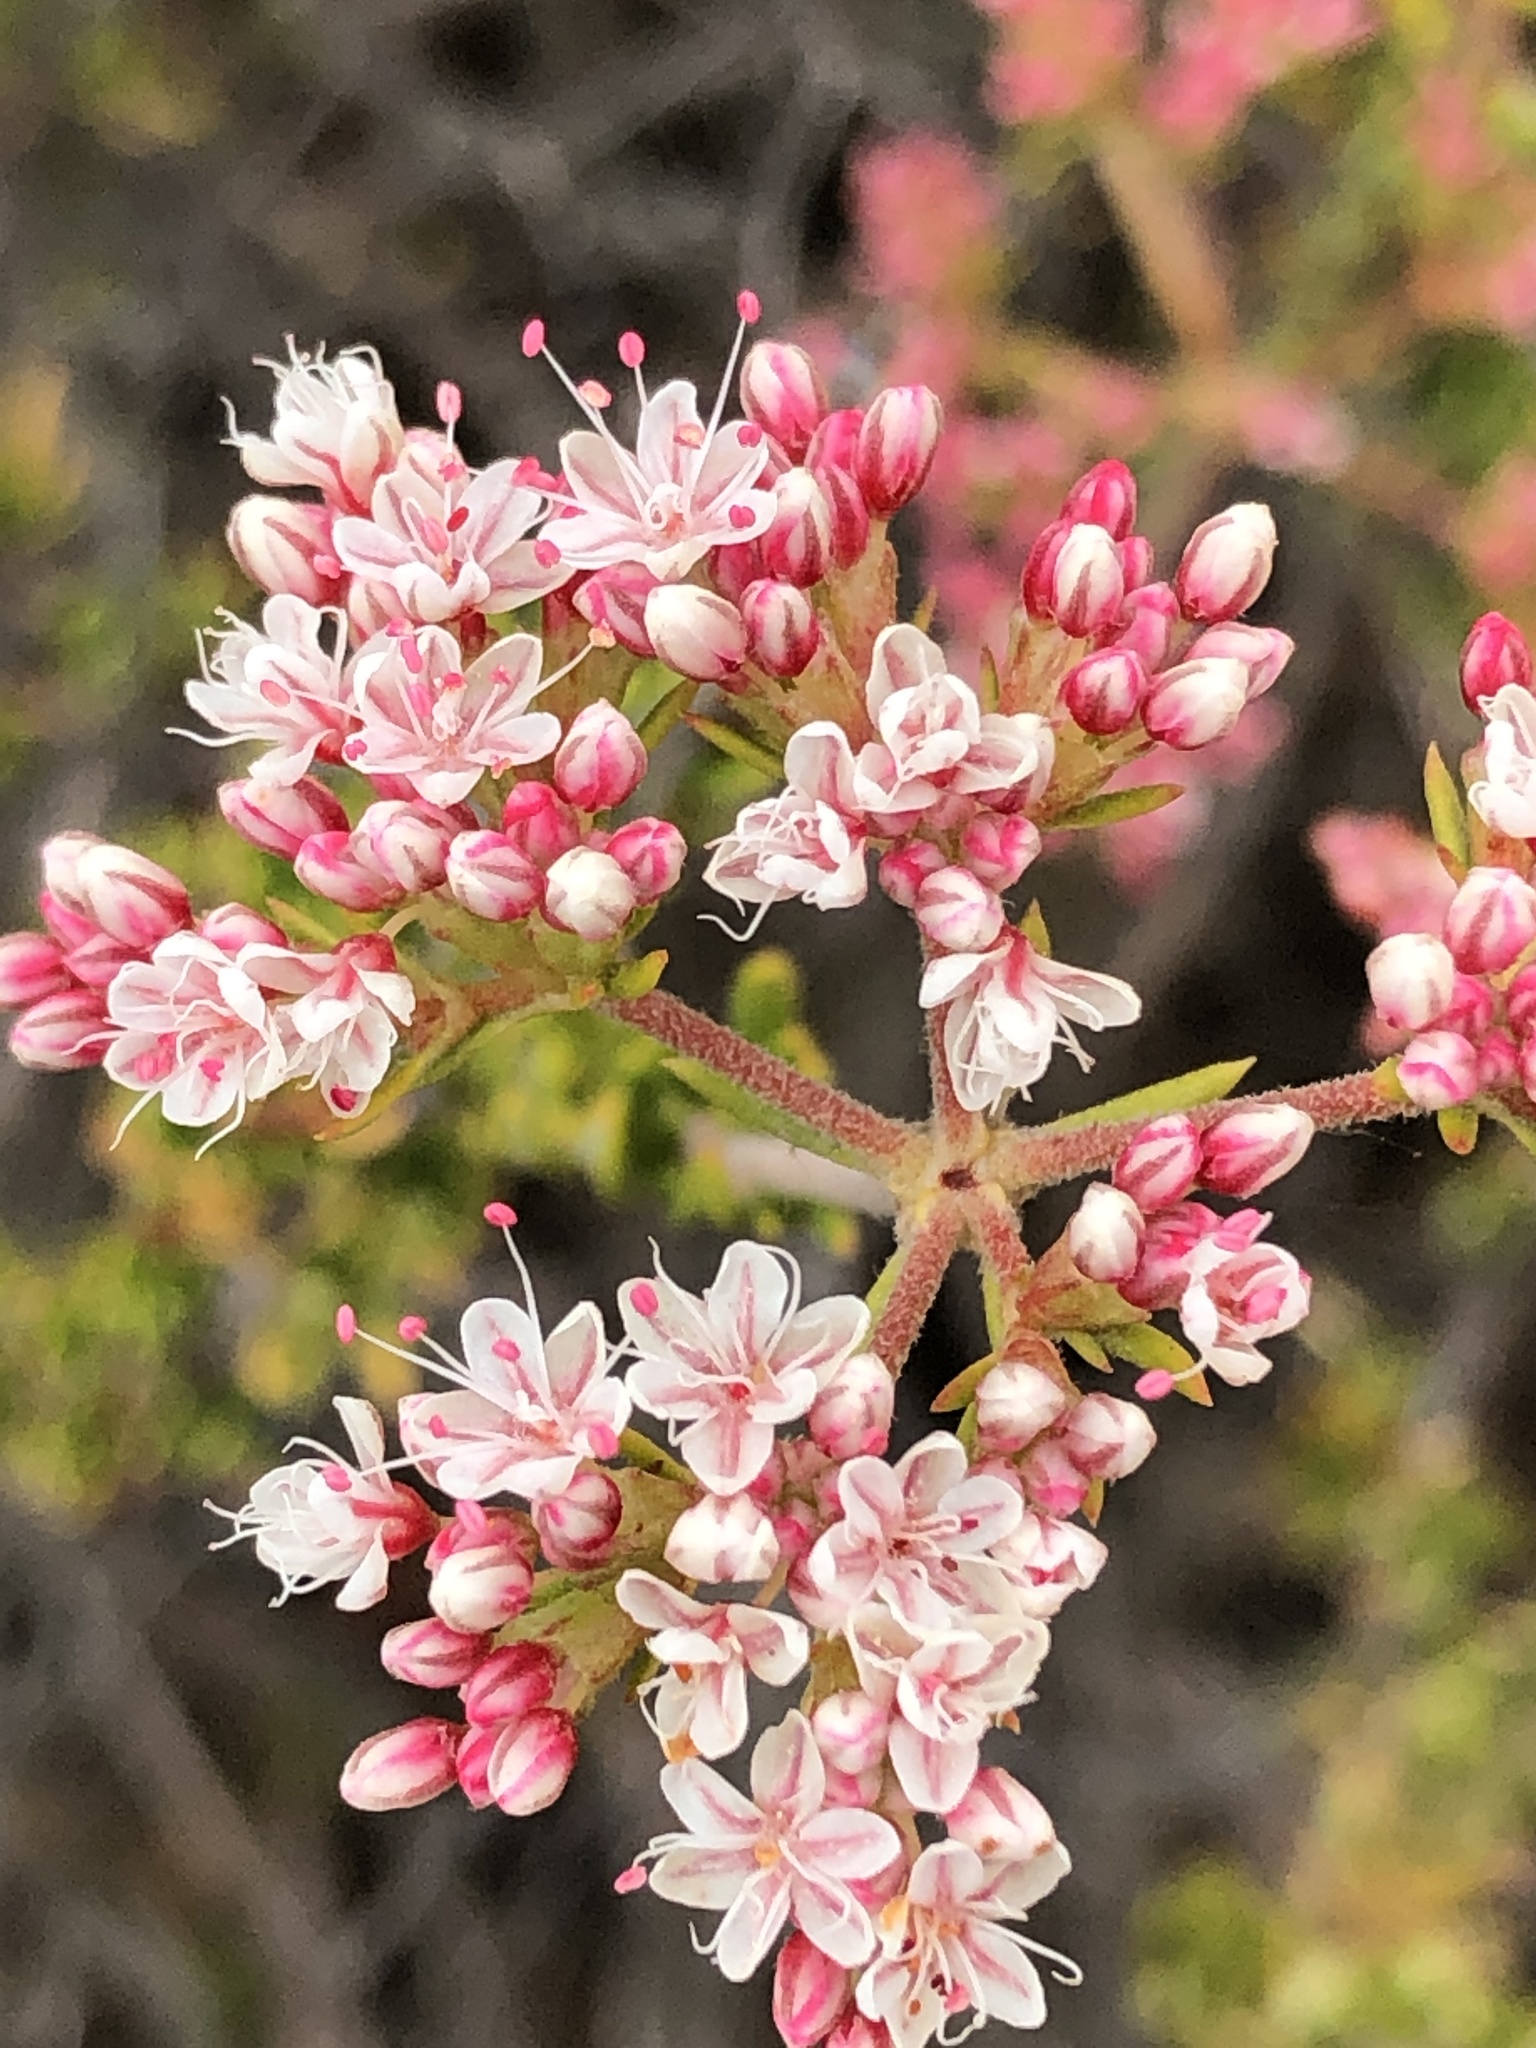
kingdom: Plantae
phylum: Tracheophyta
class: Magnoliopsida
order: Caryophyllales
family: Polygonaceae
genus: Eriogonum
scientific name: Eriogonum fasciculatum
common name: California wild buckwheat
